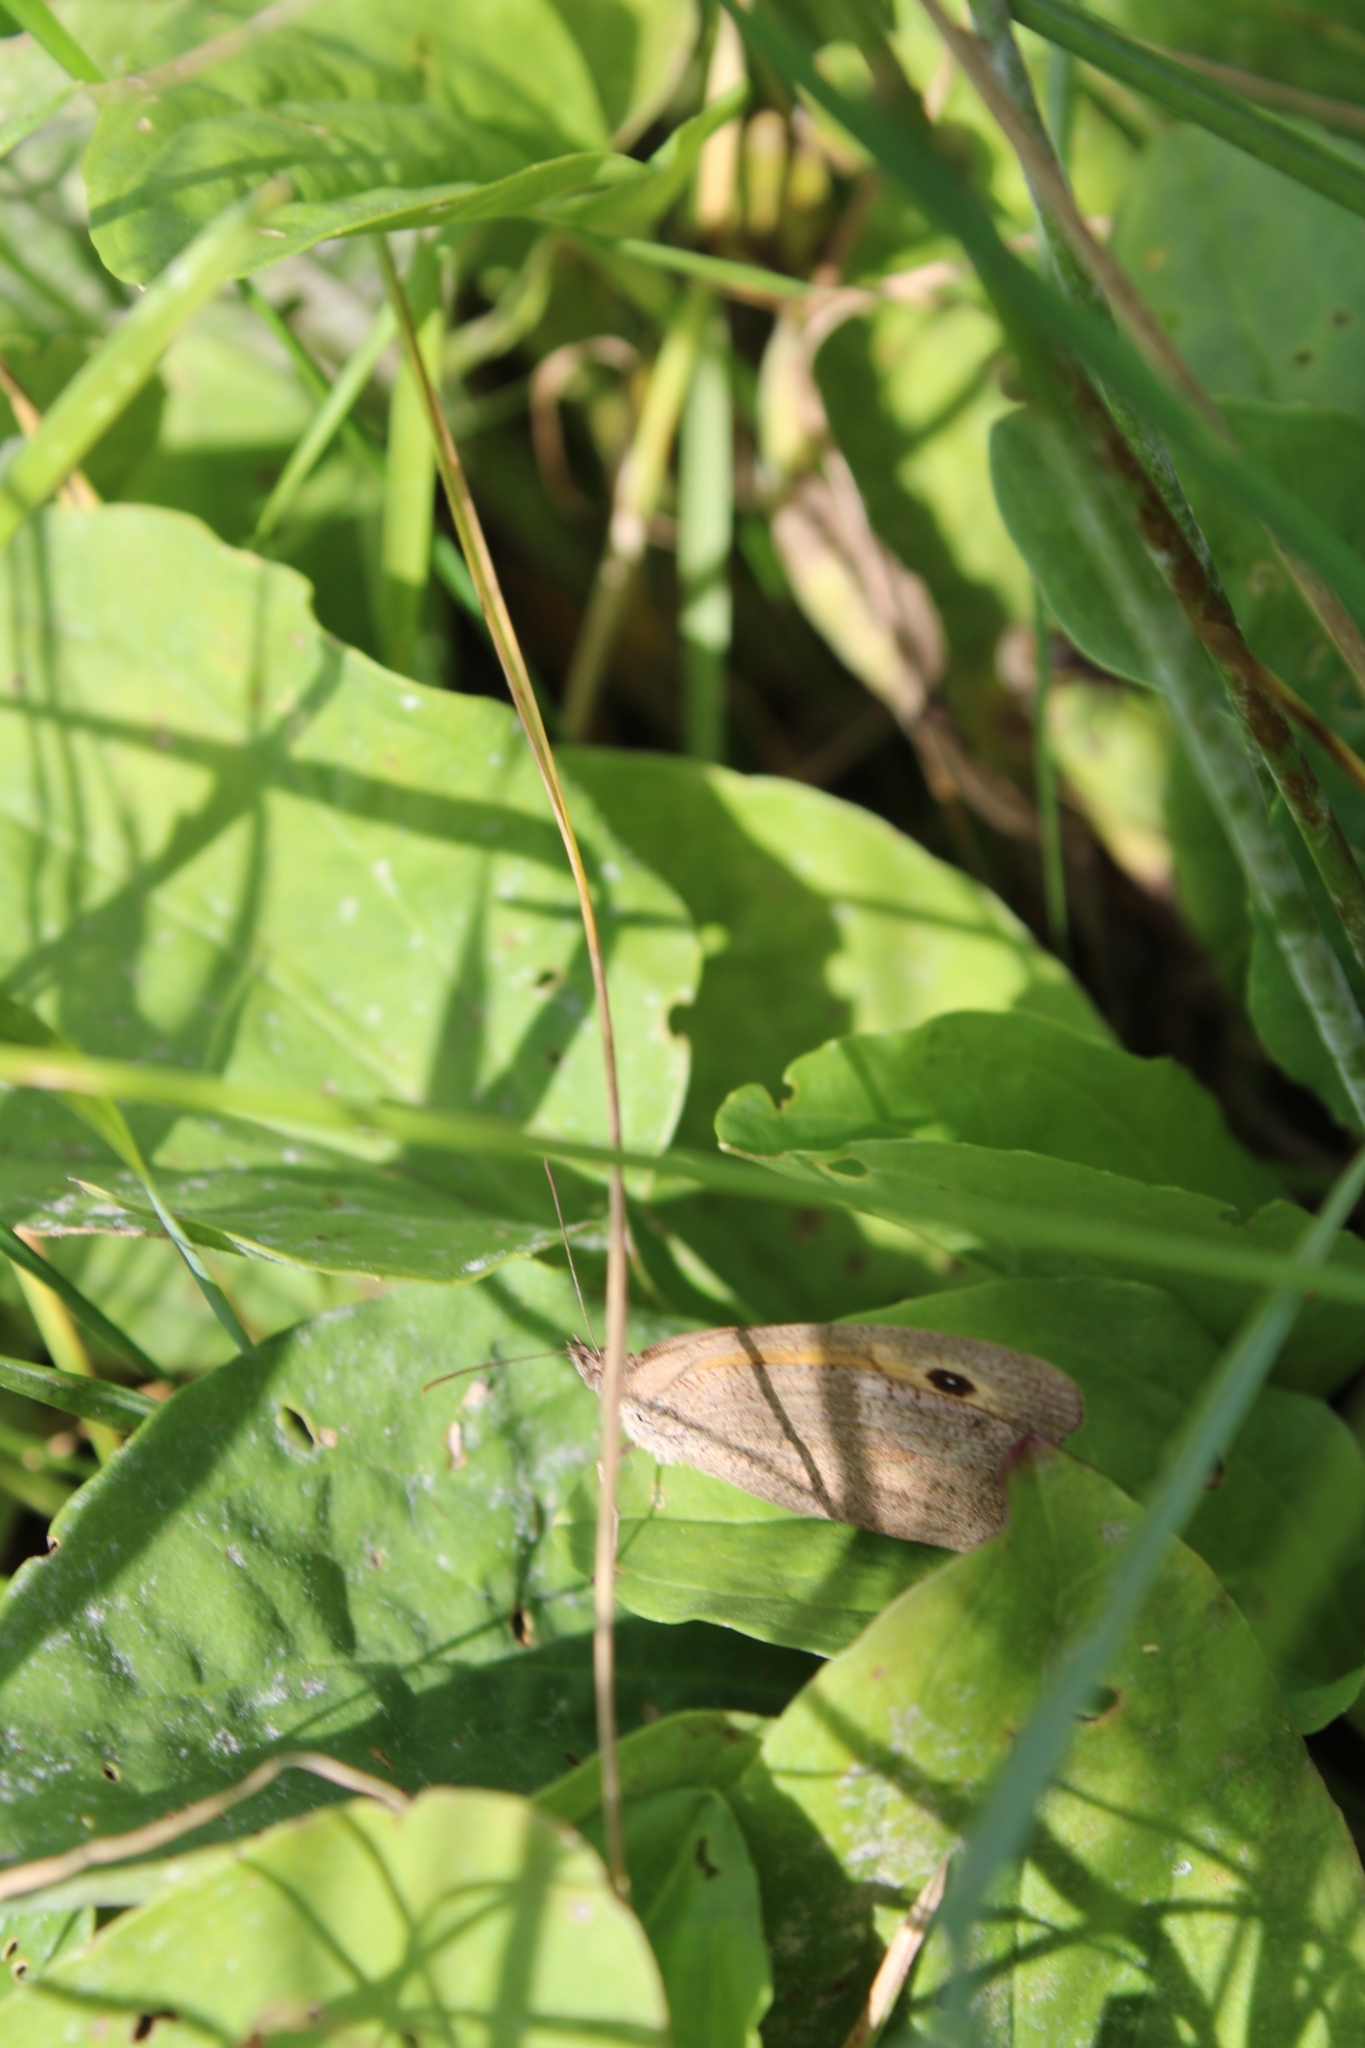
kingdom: Animalia
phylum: Arthropoda
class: Insecta
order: Lepidoptera
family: Nymphalidae
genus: Maniola
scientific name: Maniola jurtina
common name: Meadow brown
